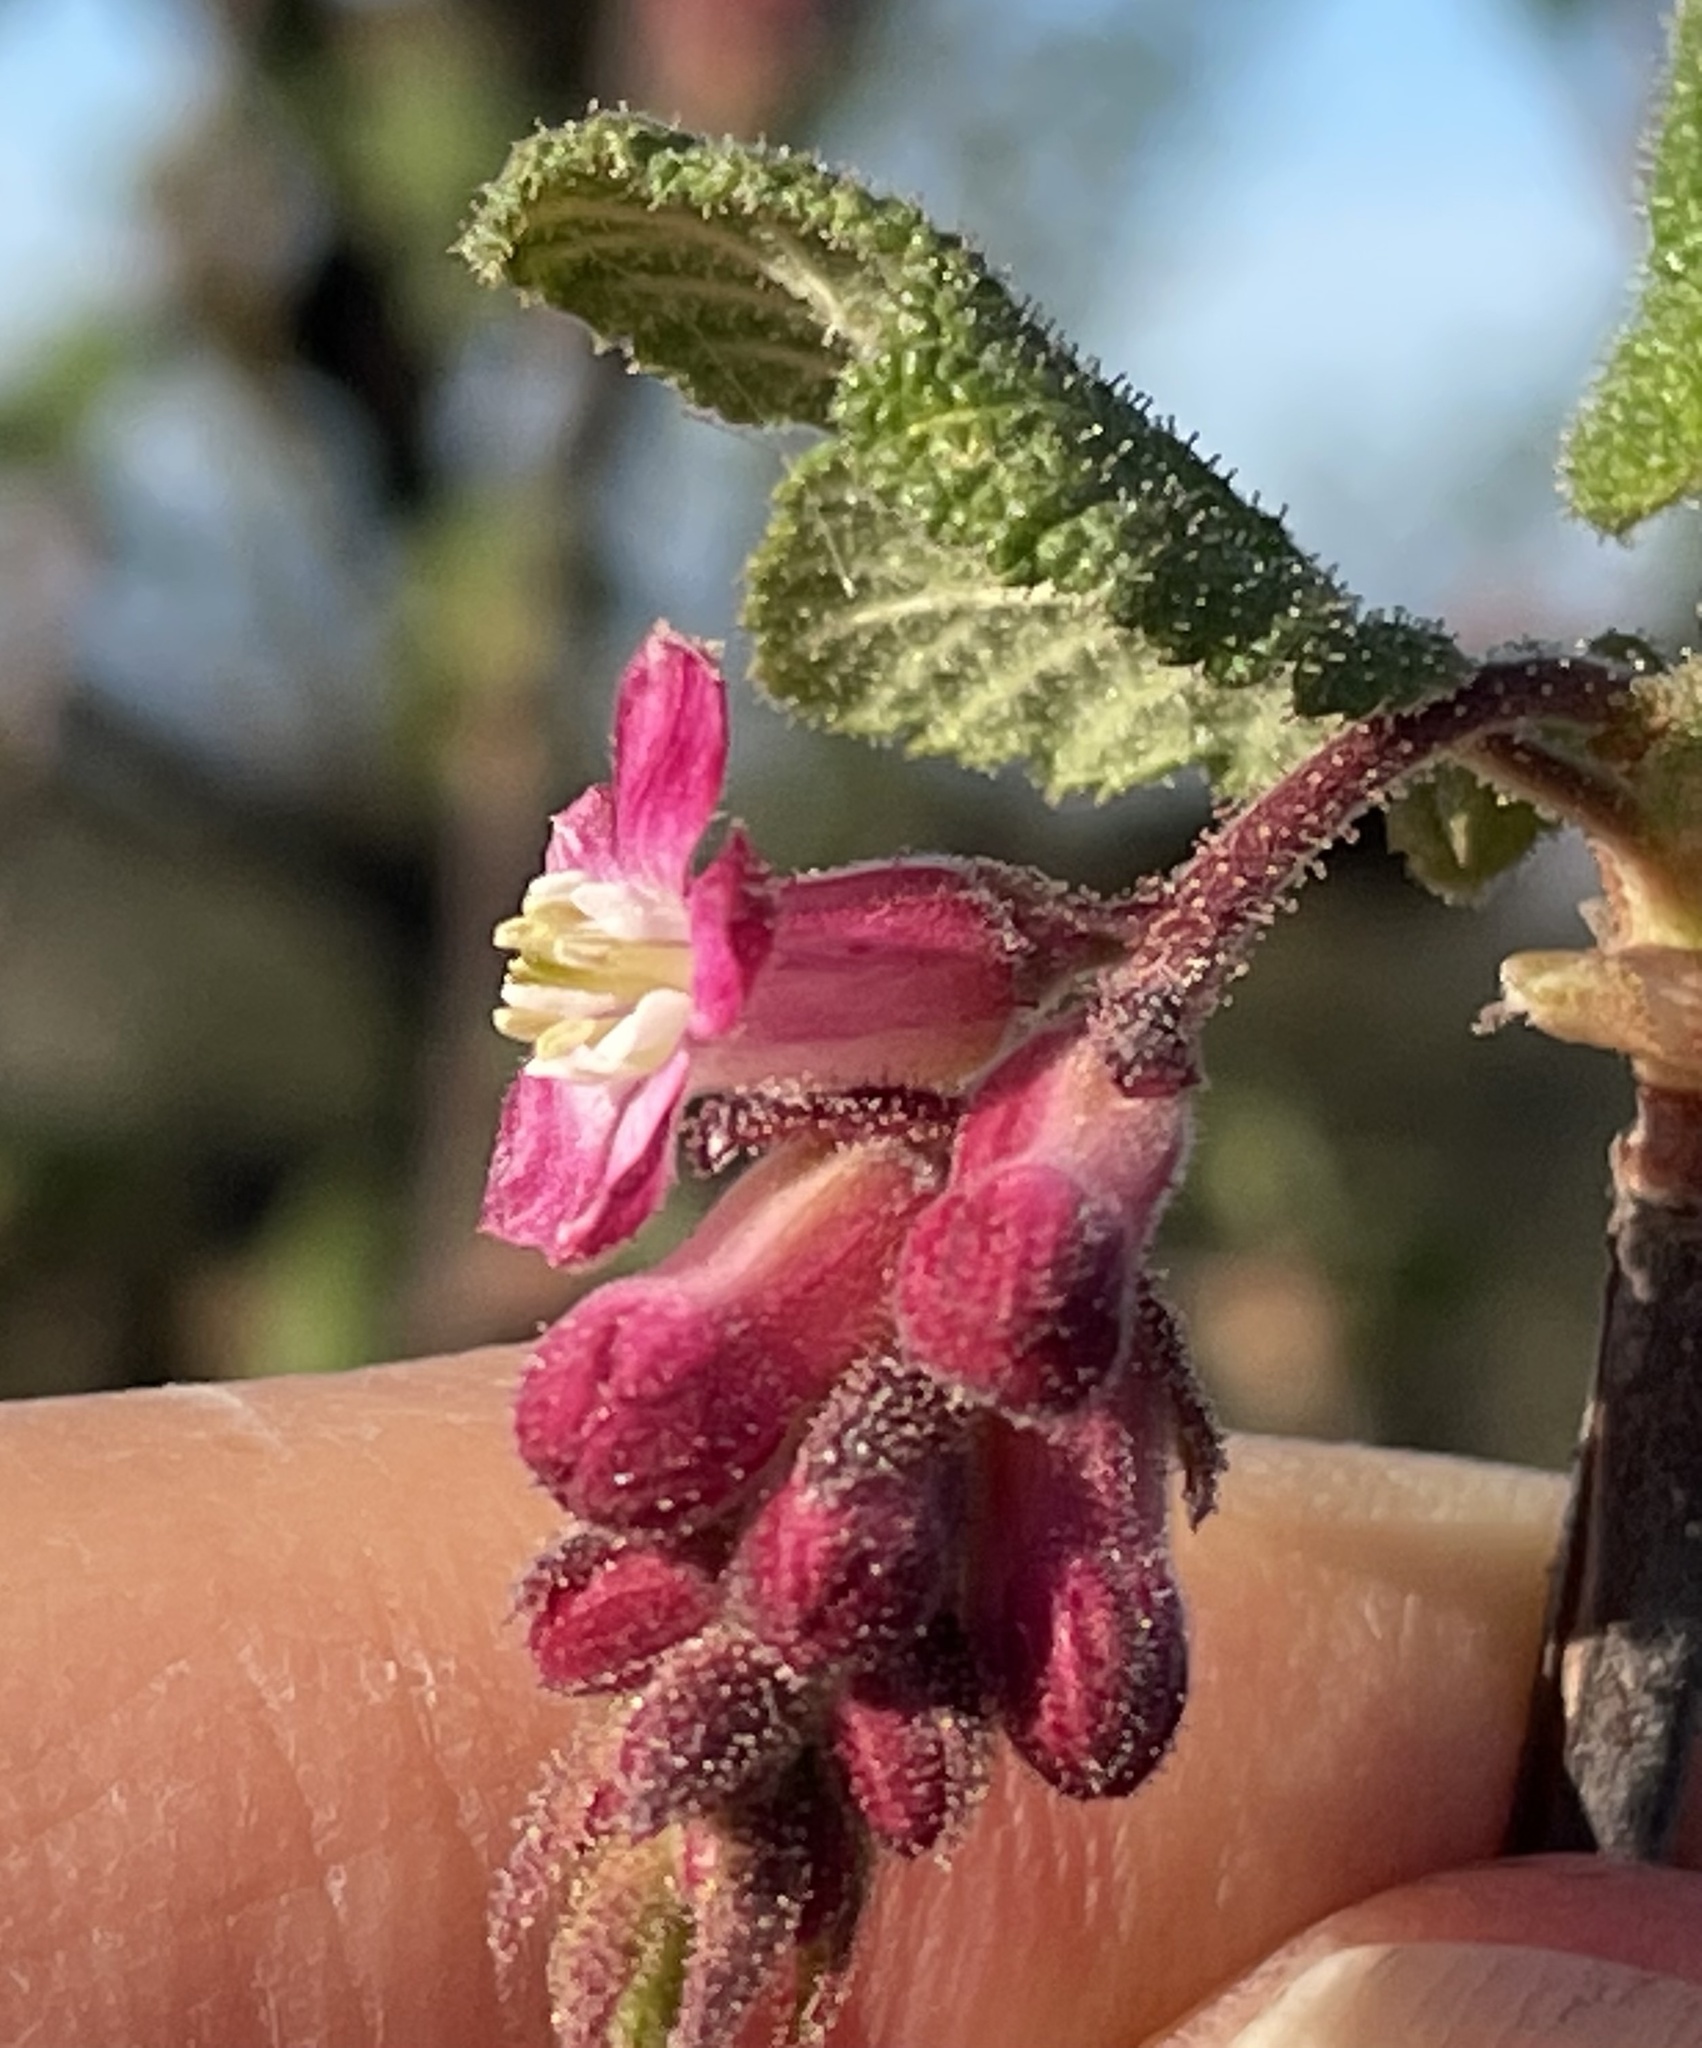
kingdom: Plantae
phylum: Tracheophyta
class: Magnoliopsida
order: Saxifragales
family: Grossulariaceae
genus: Ribes
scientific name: Ribes malvaceum
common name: Chaparral currant
